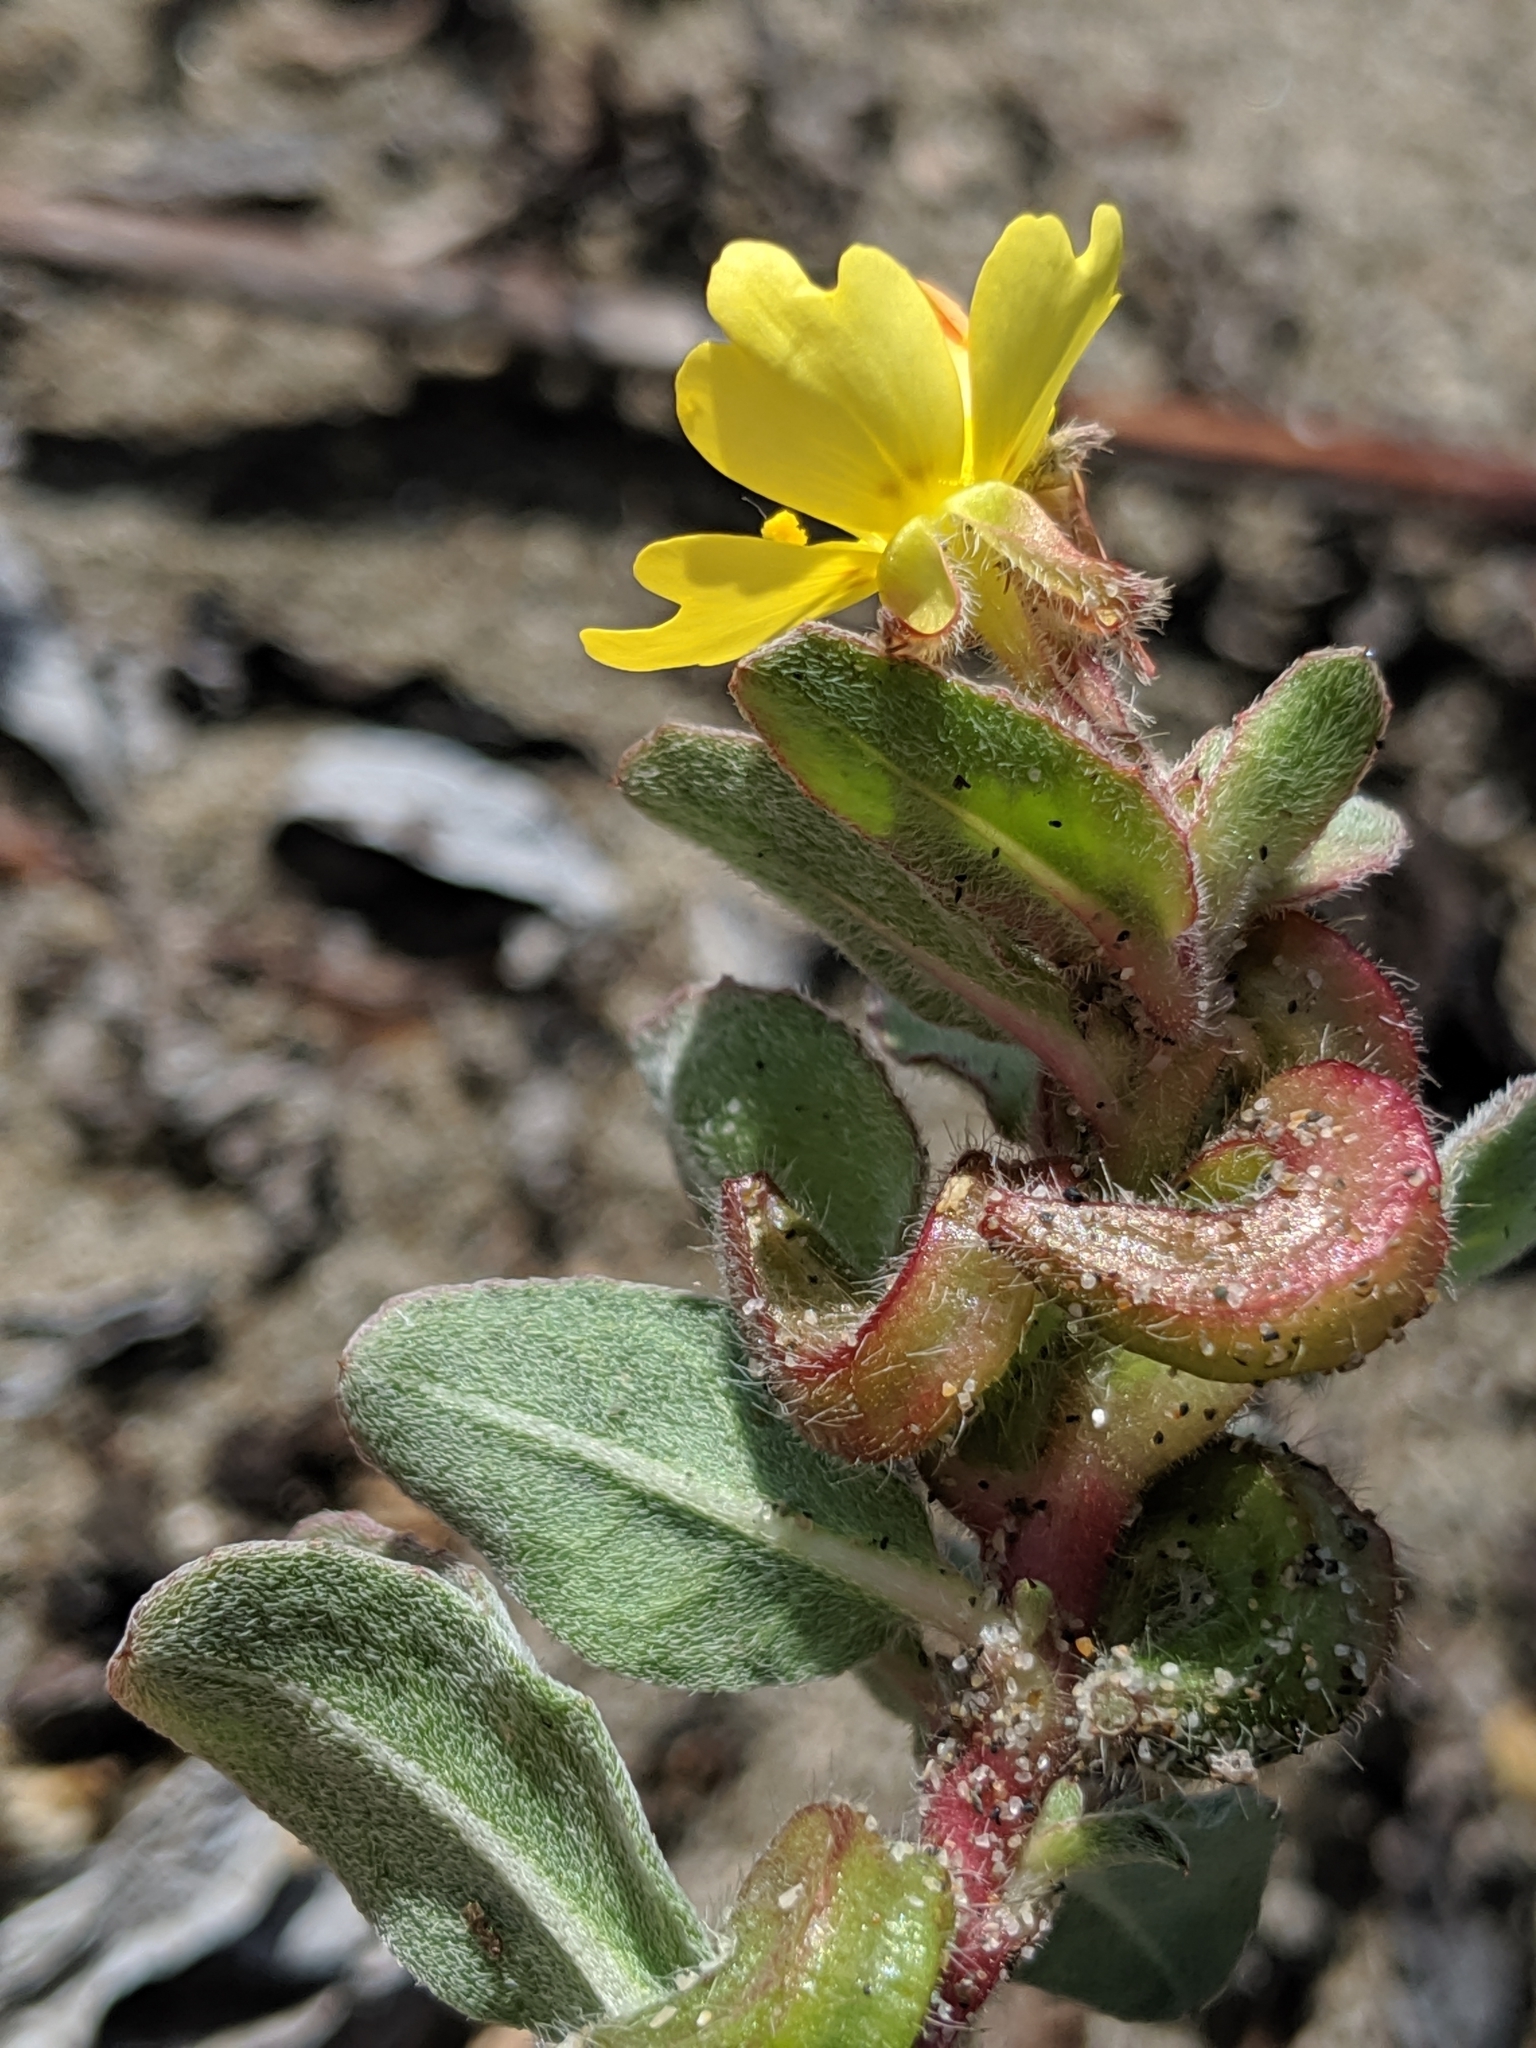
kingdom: Plantae
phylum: Tracheophyta
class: Magnoliopsida
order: Myrtales
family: Onagraceae
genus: Camissoniopsis
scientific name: Camissoniopsis cheiranthifolia
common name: Beach suncup
